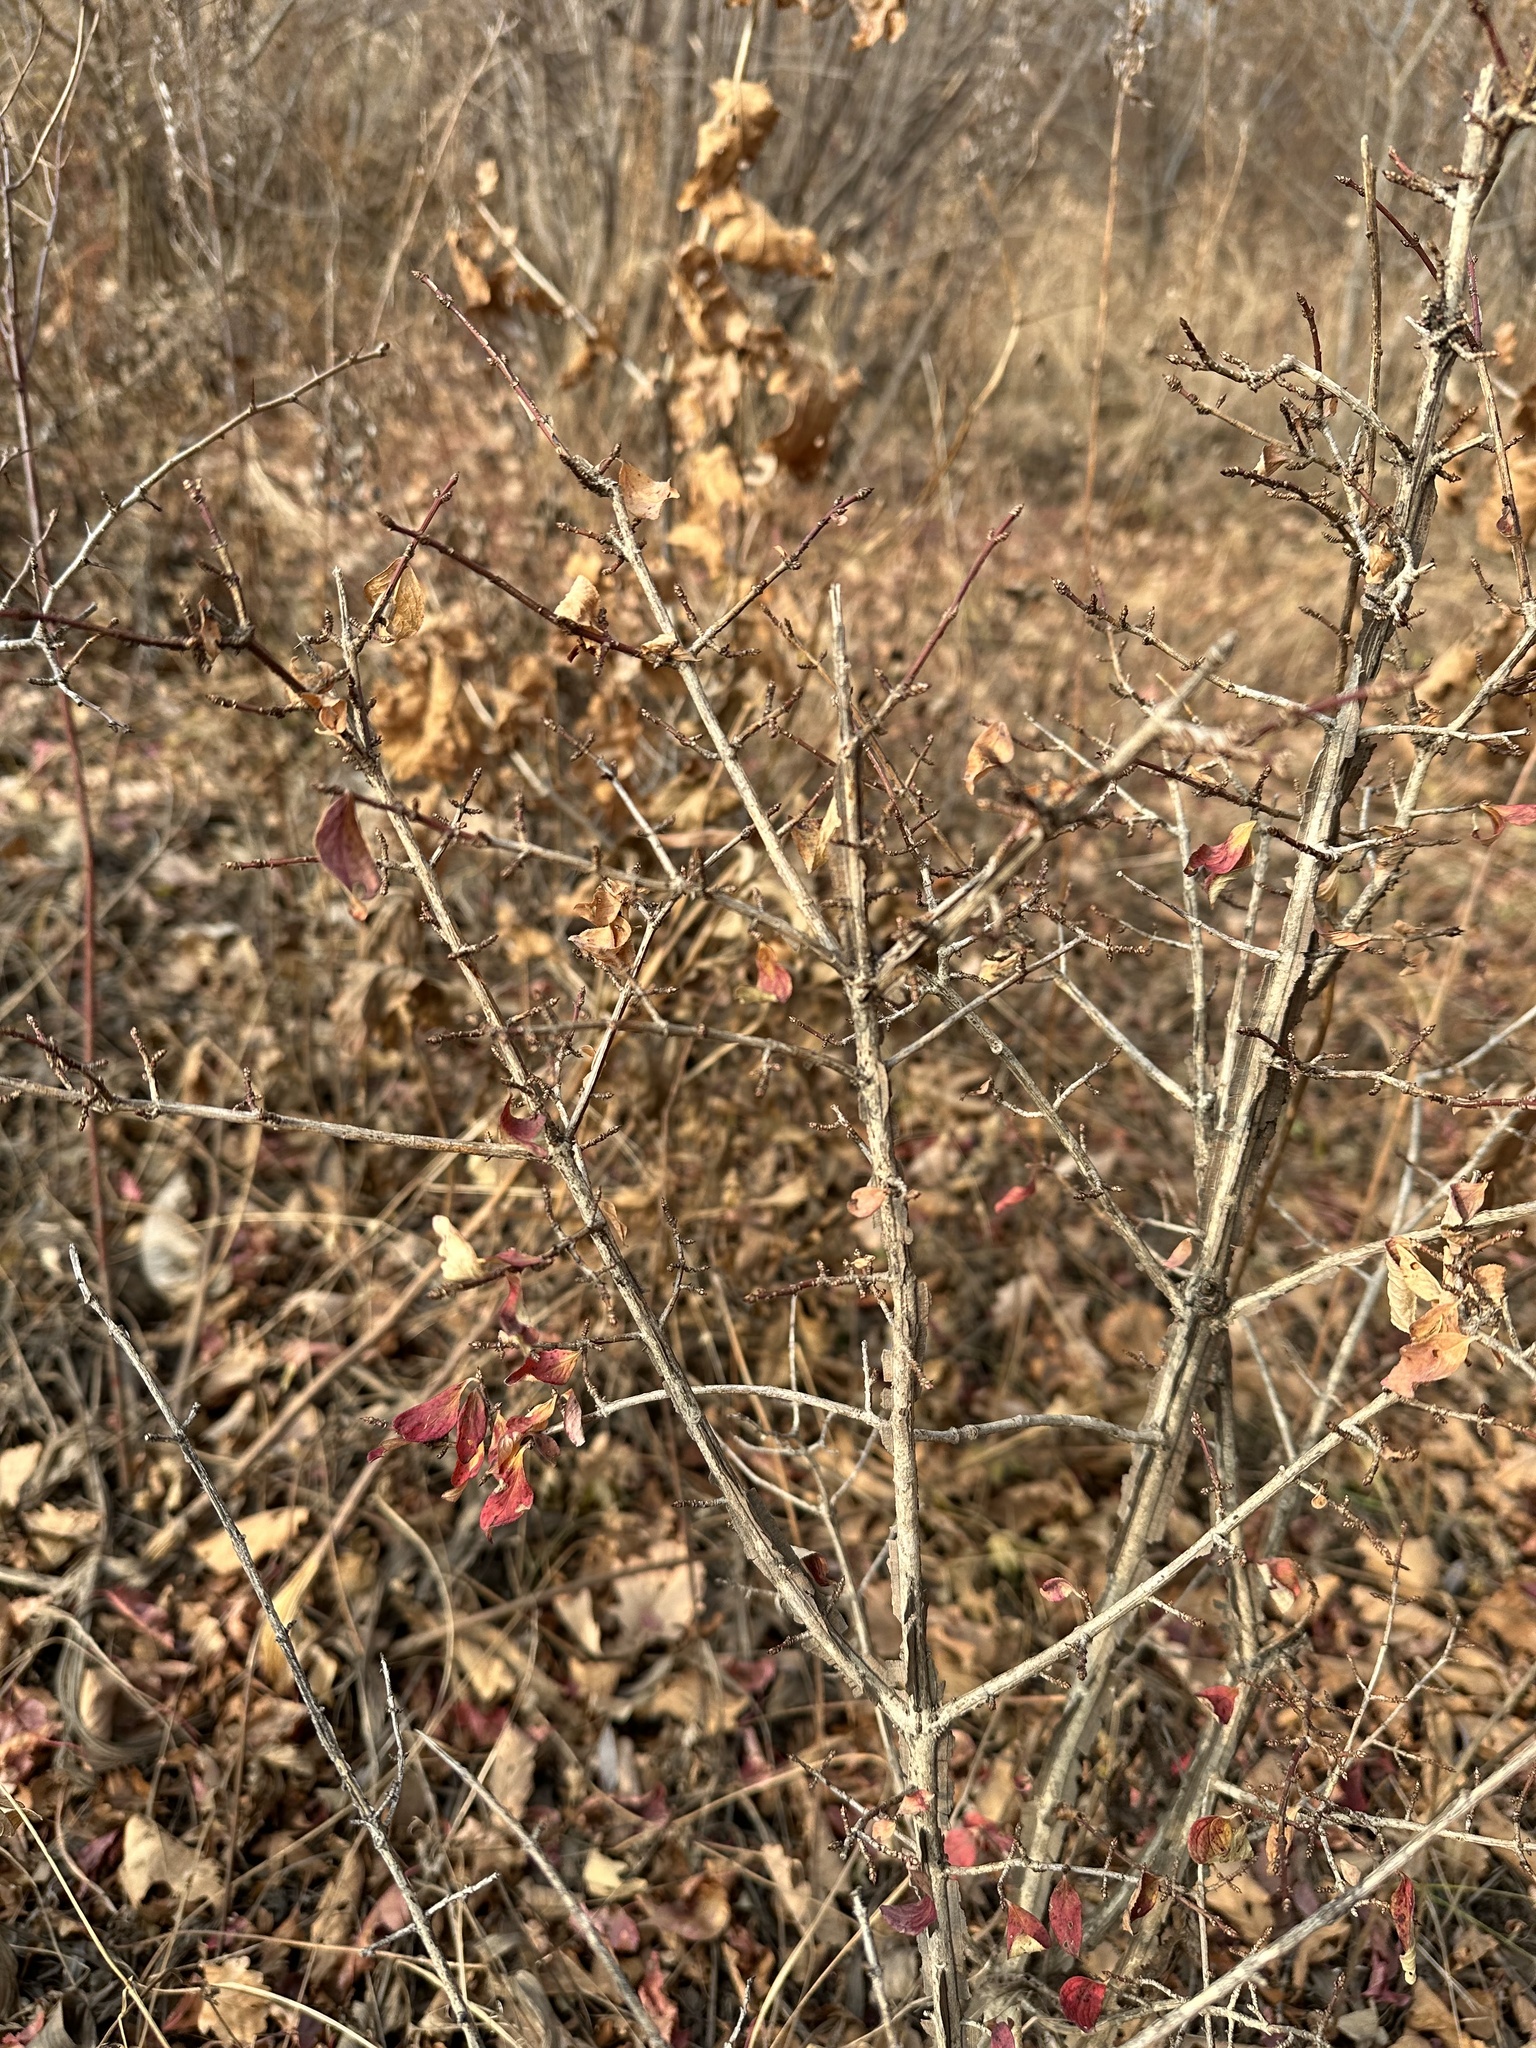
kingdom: Plantae
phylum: Tracheophyta
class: Magnoliopsida
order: Celastrales
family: Celastraceae
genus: Euonymus
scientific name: Euonymus alatus
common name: Winged euonymus
